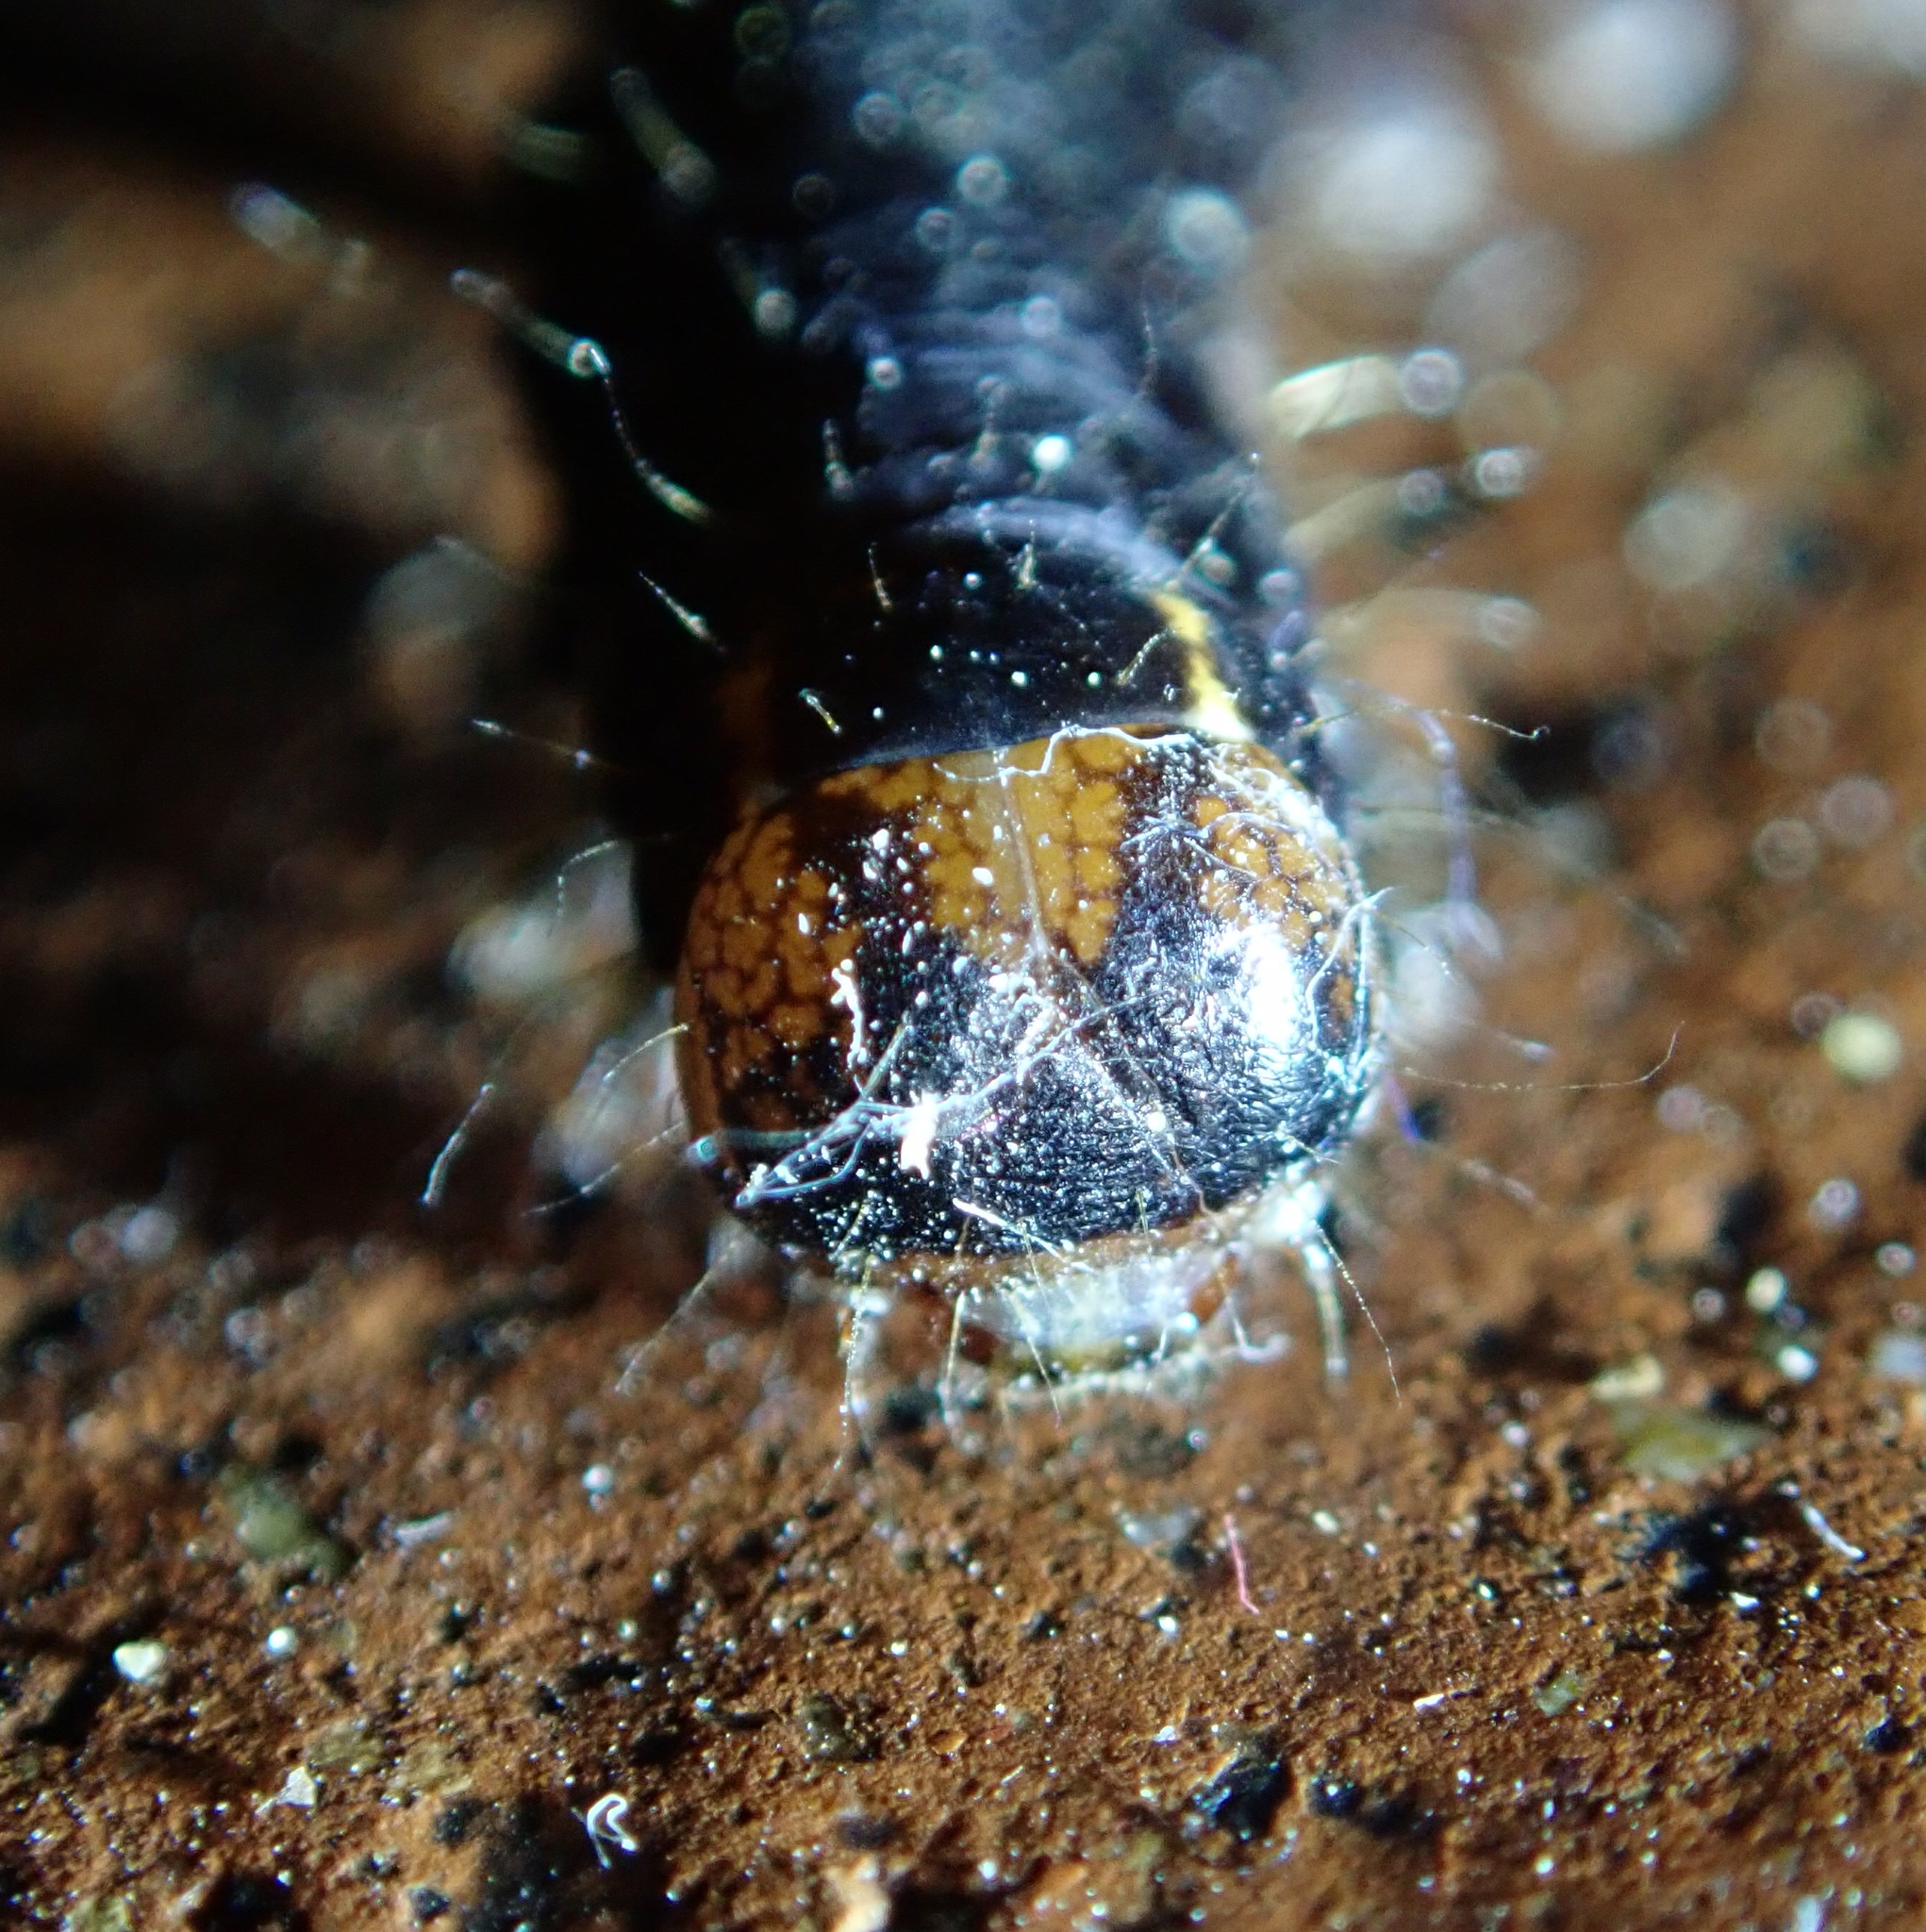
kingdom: Animalia
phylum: Arthropoda
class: Insecta
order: Lepidoptera
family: Noctuidae
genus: Eupsilia
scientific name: Eupsilia transversa
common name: Satellite
